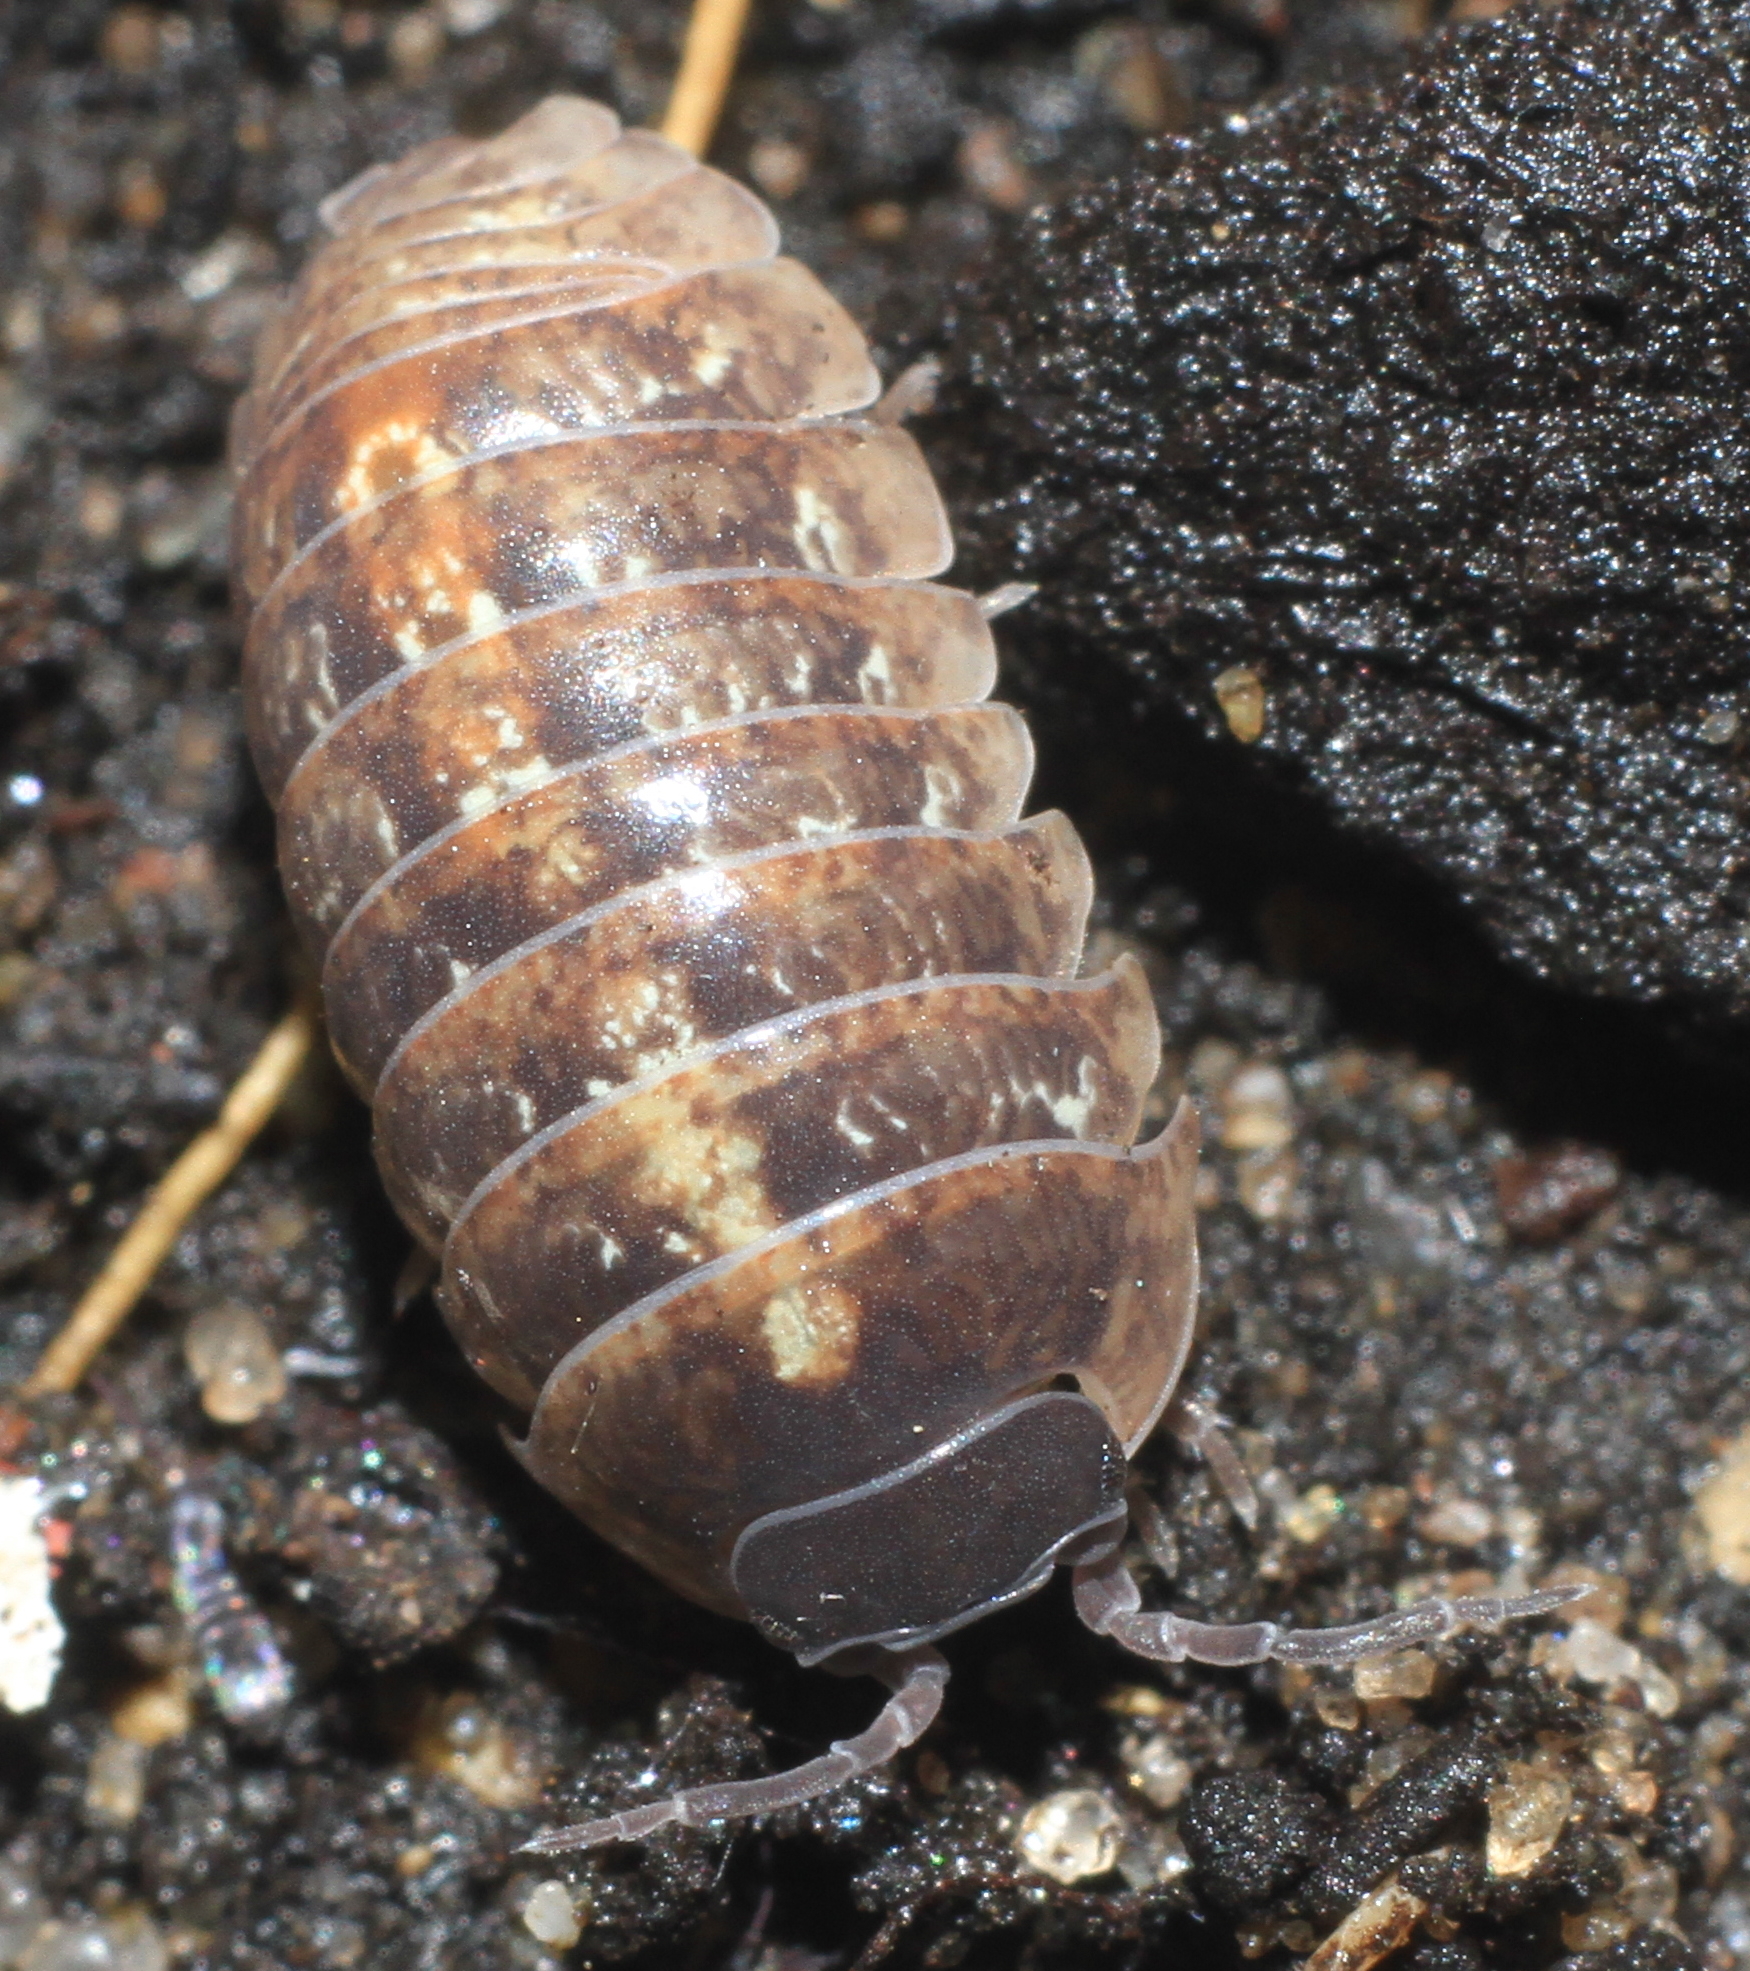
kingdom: Animalia
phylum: Arthropoda
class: Malacostraca
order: Isopoda
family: Armadillidiidae
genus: Armadillidium
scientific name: Armadillidium vulgare
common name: Common pill woodlouse
